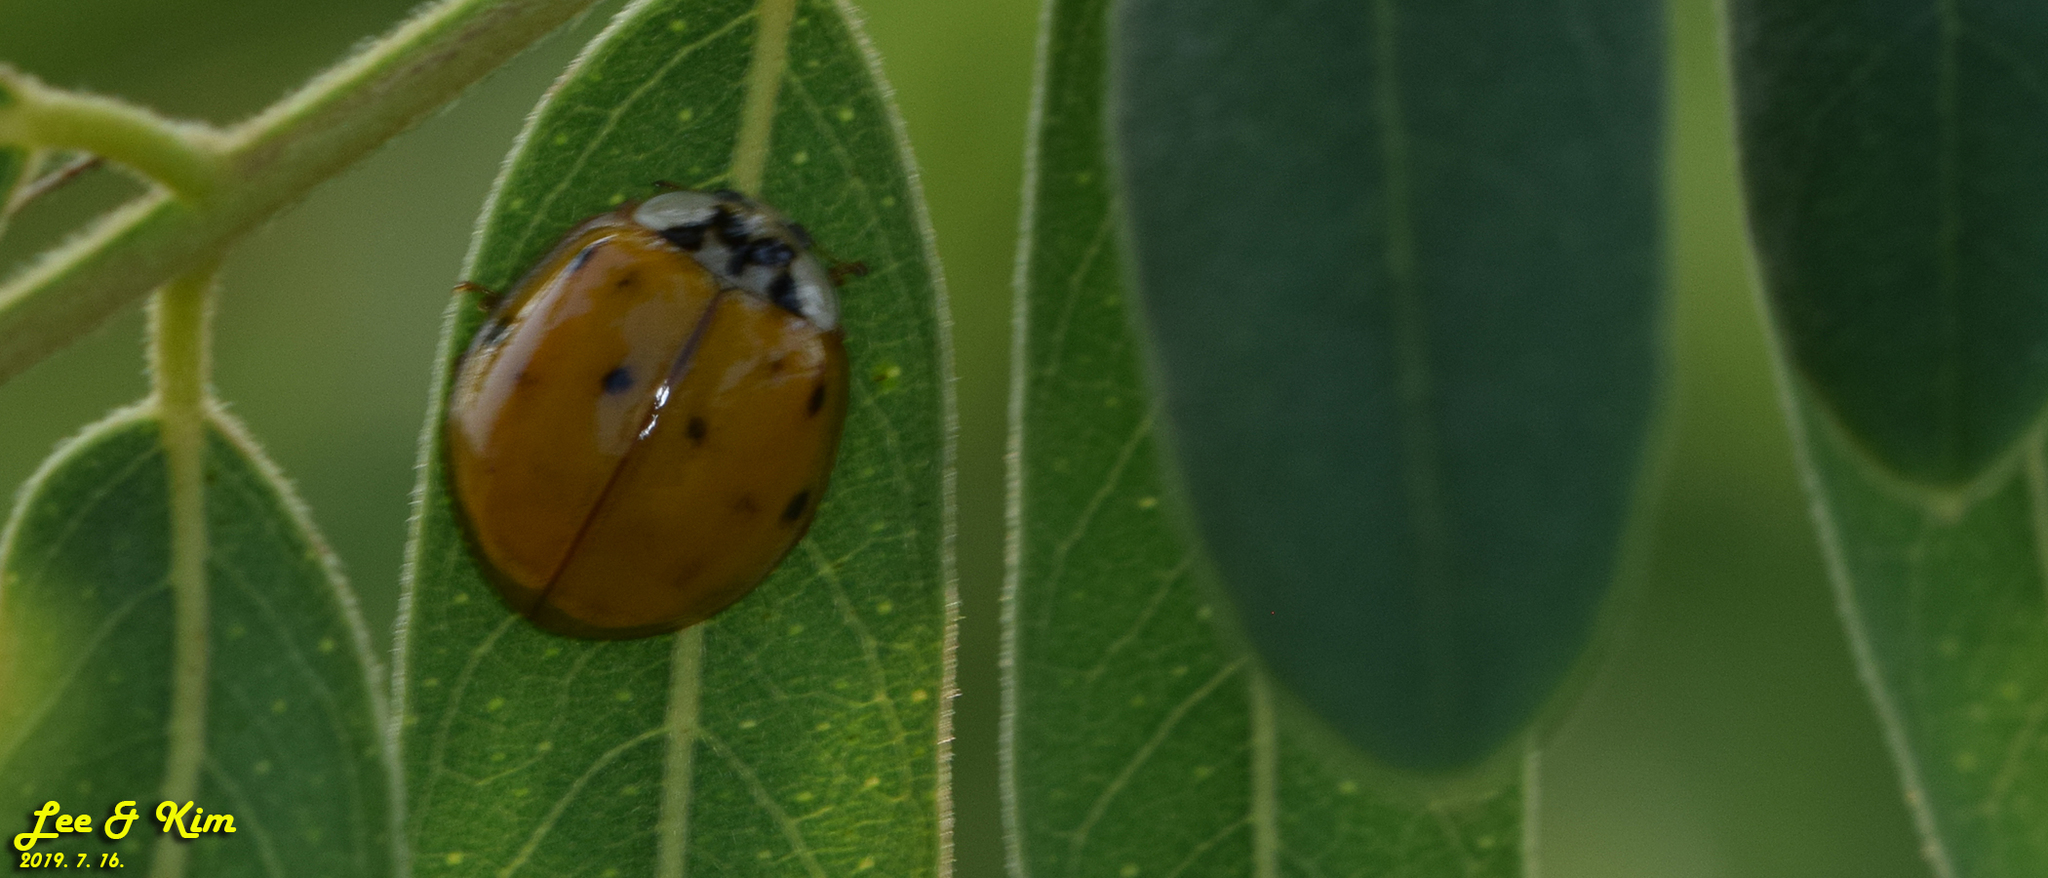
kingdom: Animalia
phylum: Arthropoda
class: Insecta
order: Coleoptera
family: Coccinellidae
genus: Harmonia
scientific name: Harmonia axyridis
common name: Harlequin ladybird
